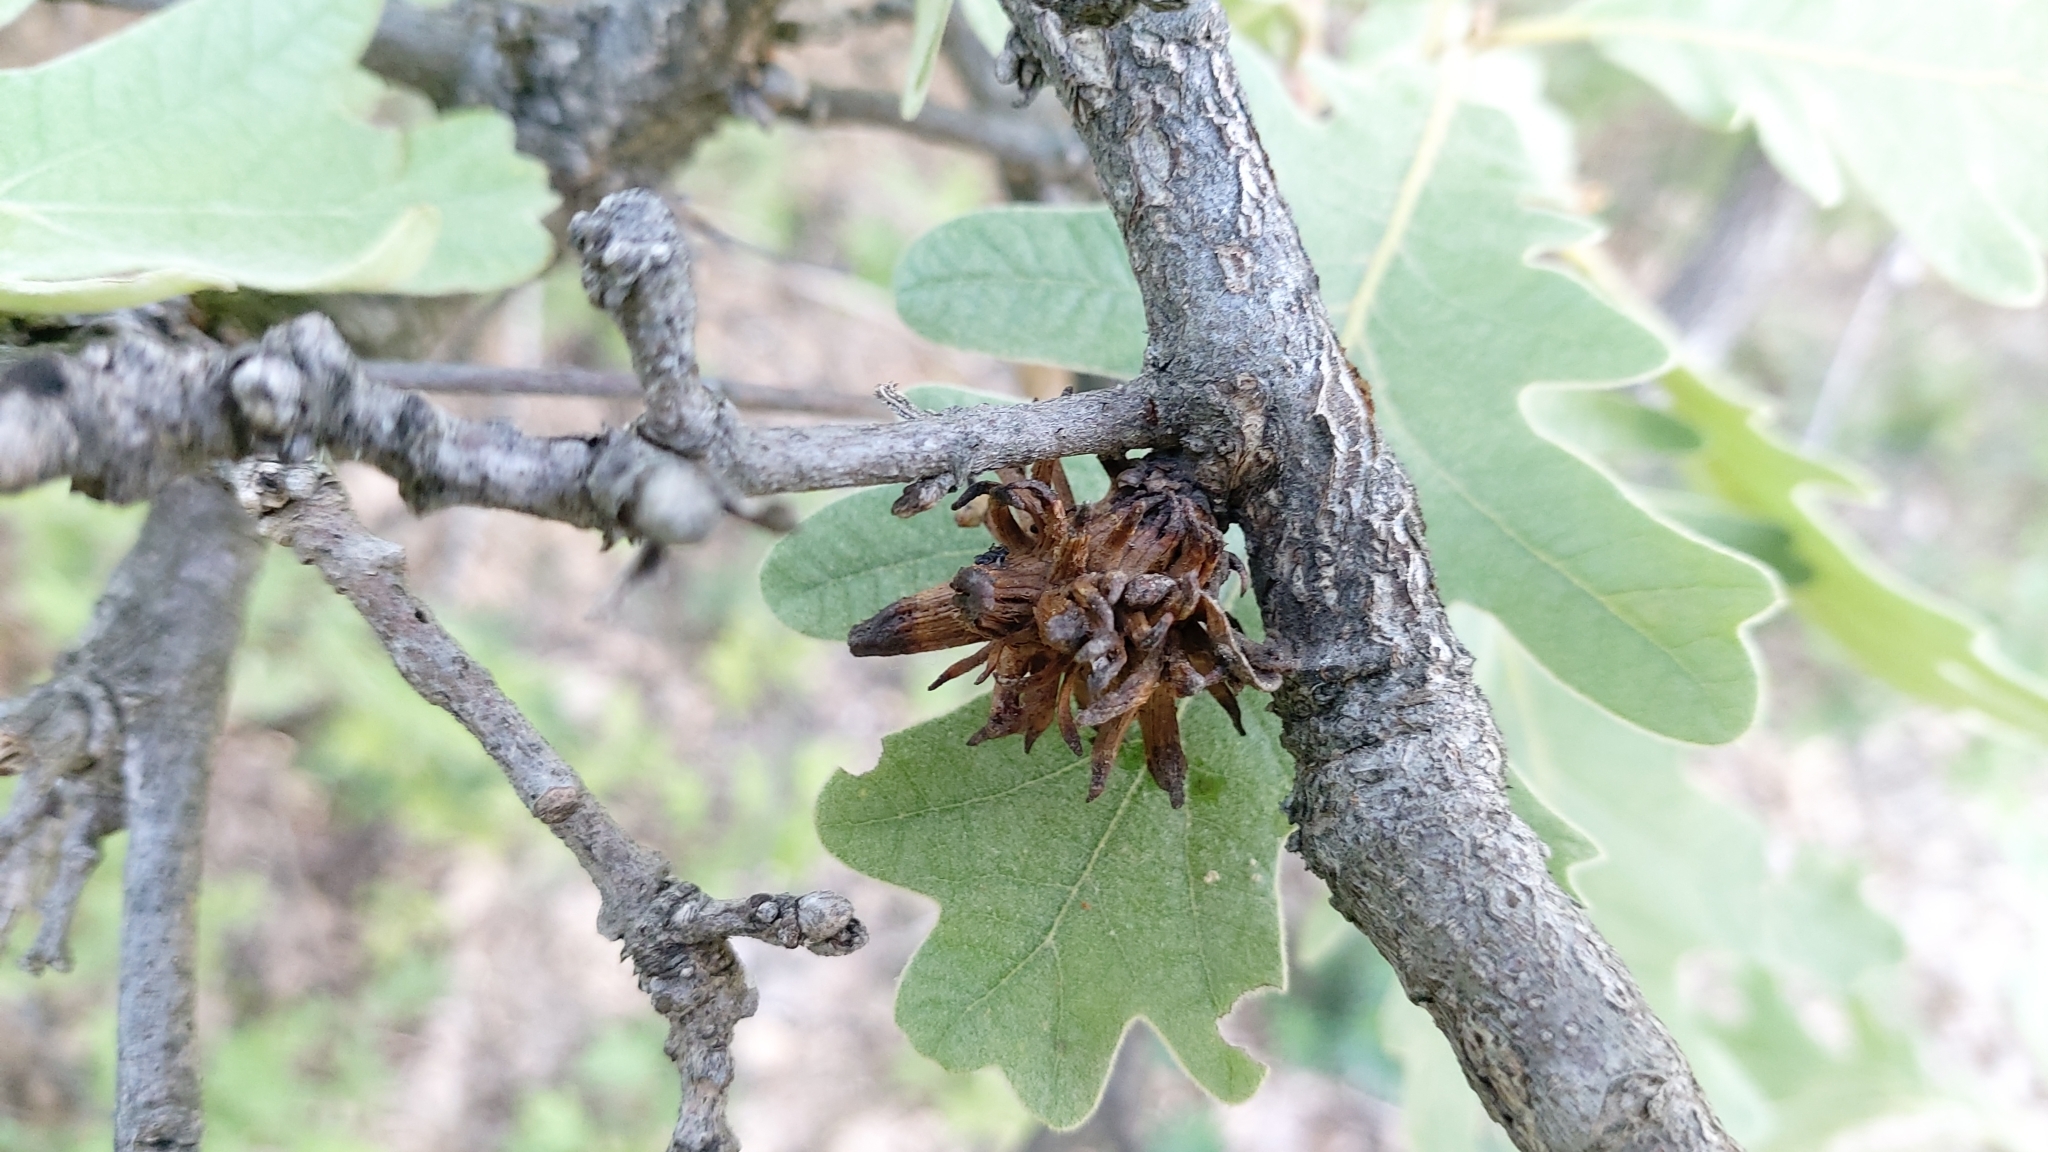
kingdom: Animalia
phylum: Arthropoda
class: Insecta
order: Hymenoptera
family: Cynipidae
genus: Andricus
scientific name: Andricus grossulariae
